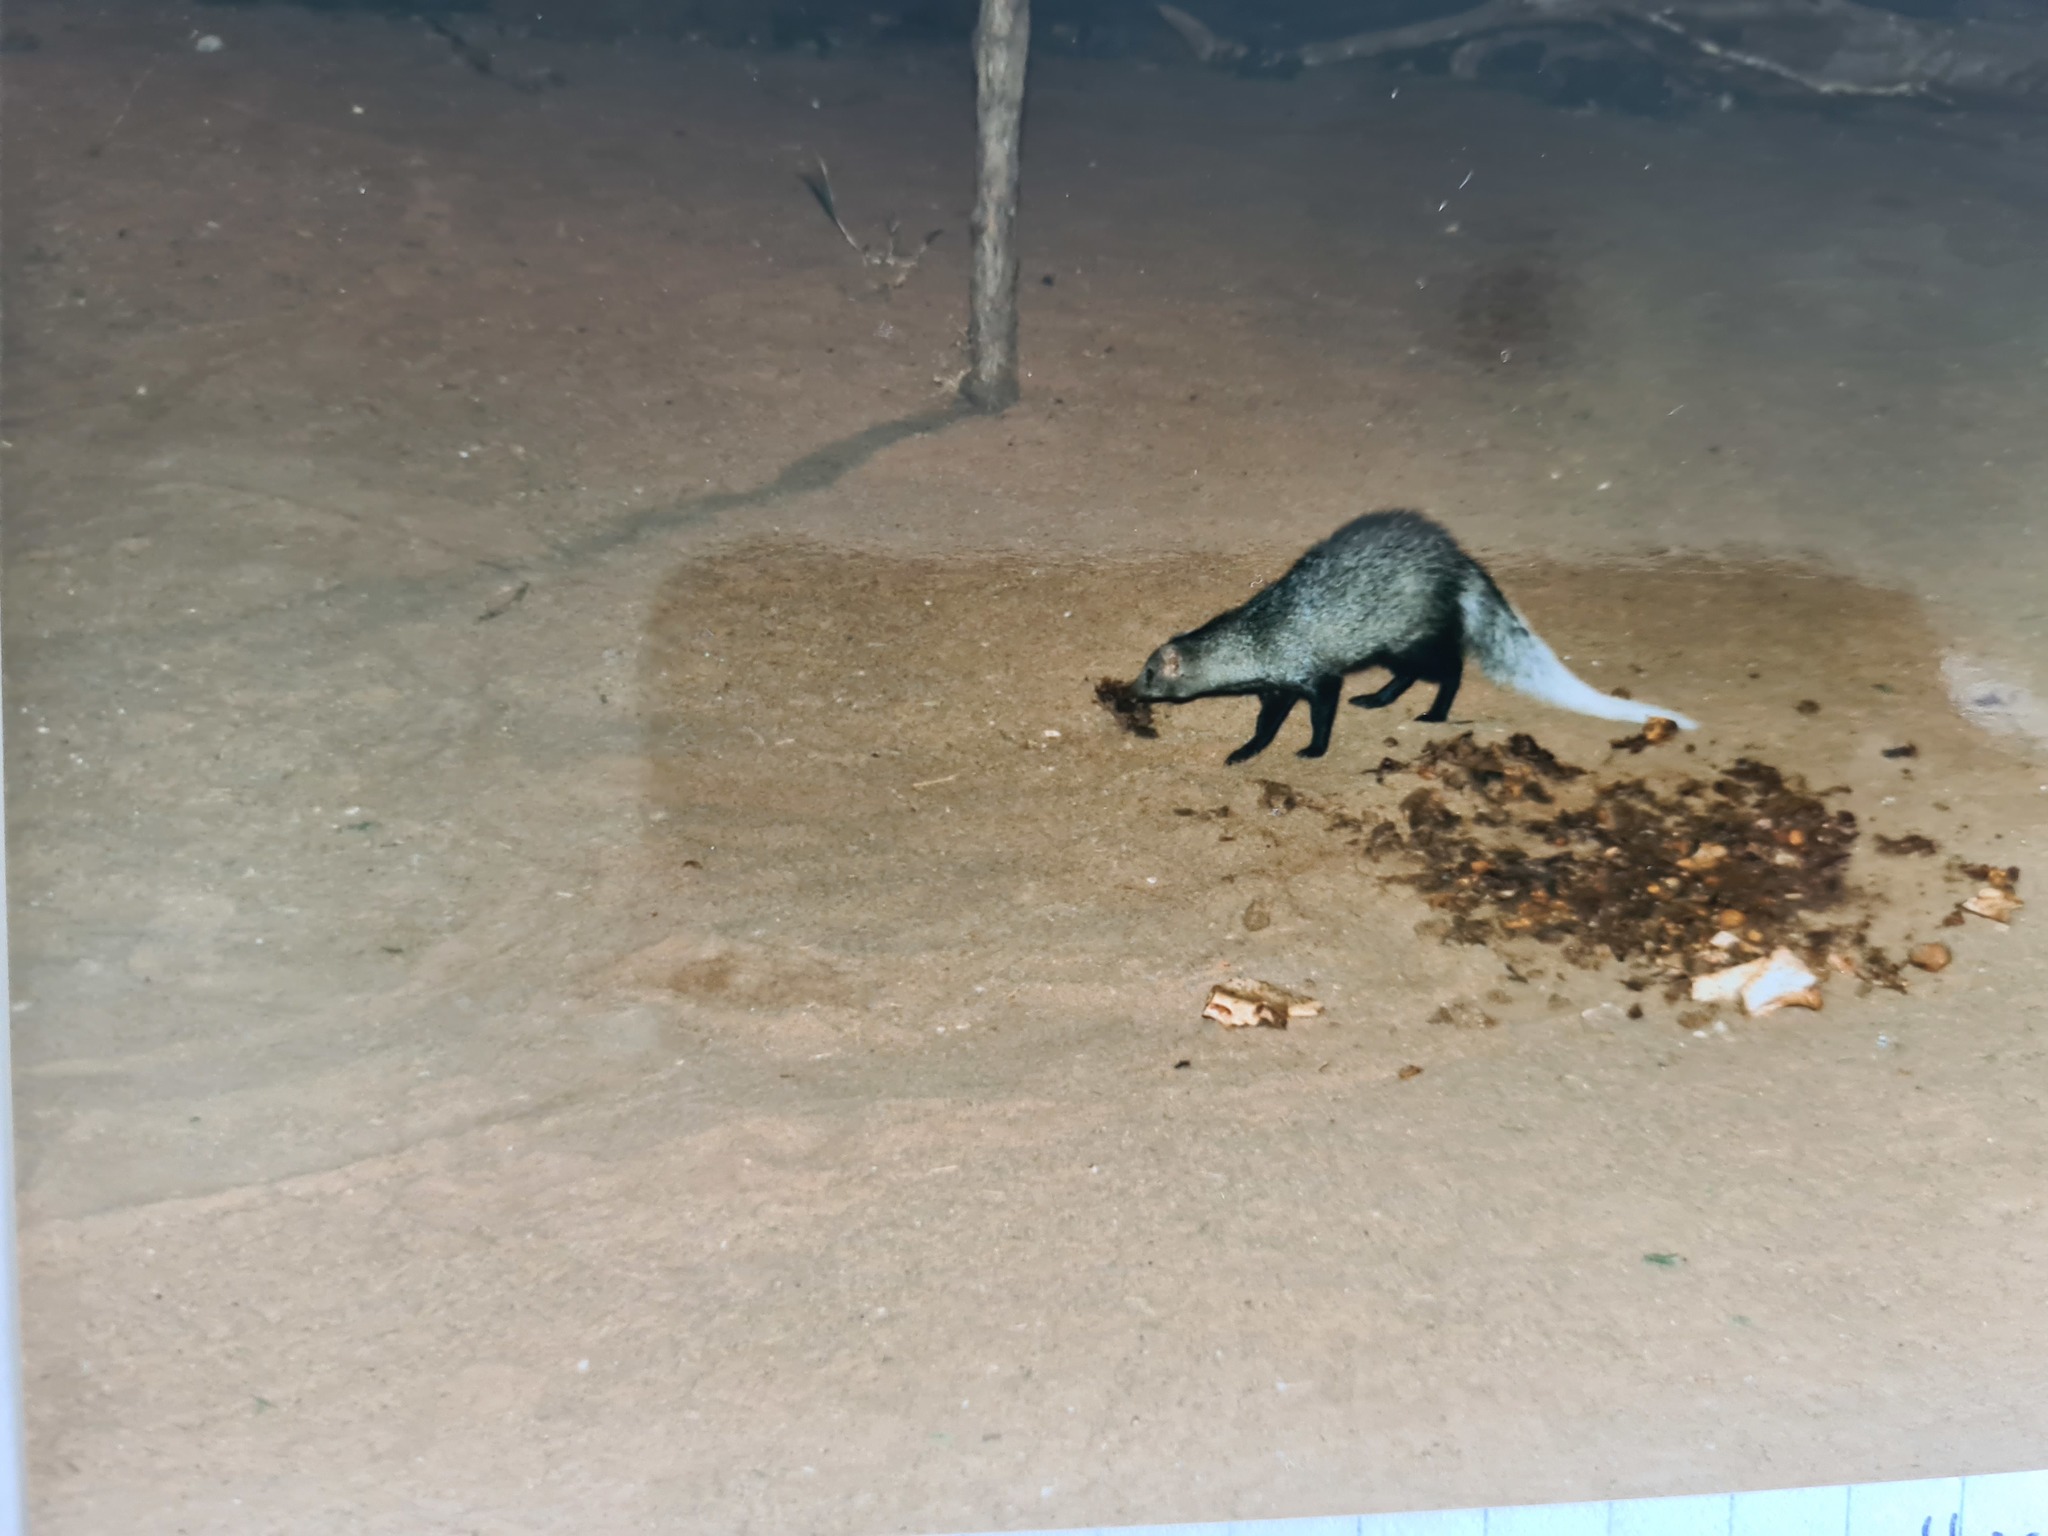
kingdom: Animalia
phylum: Chordata
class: Mammalia
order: Carnivora
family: Herpestidae
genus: Ichneumia
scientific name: Ichneumia albicauda
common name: White-tailed mongoose
